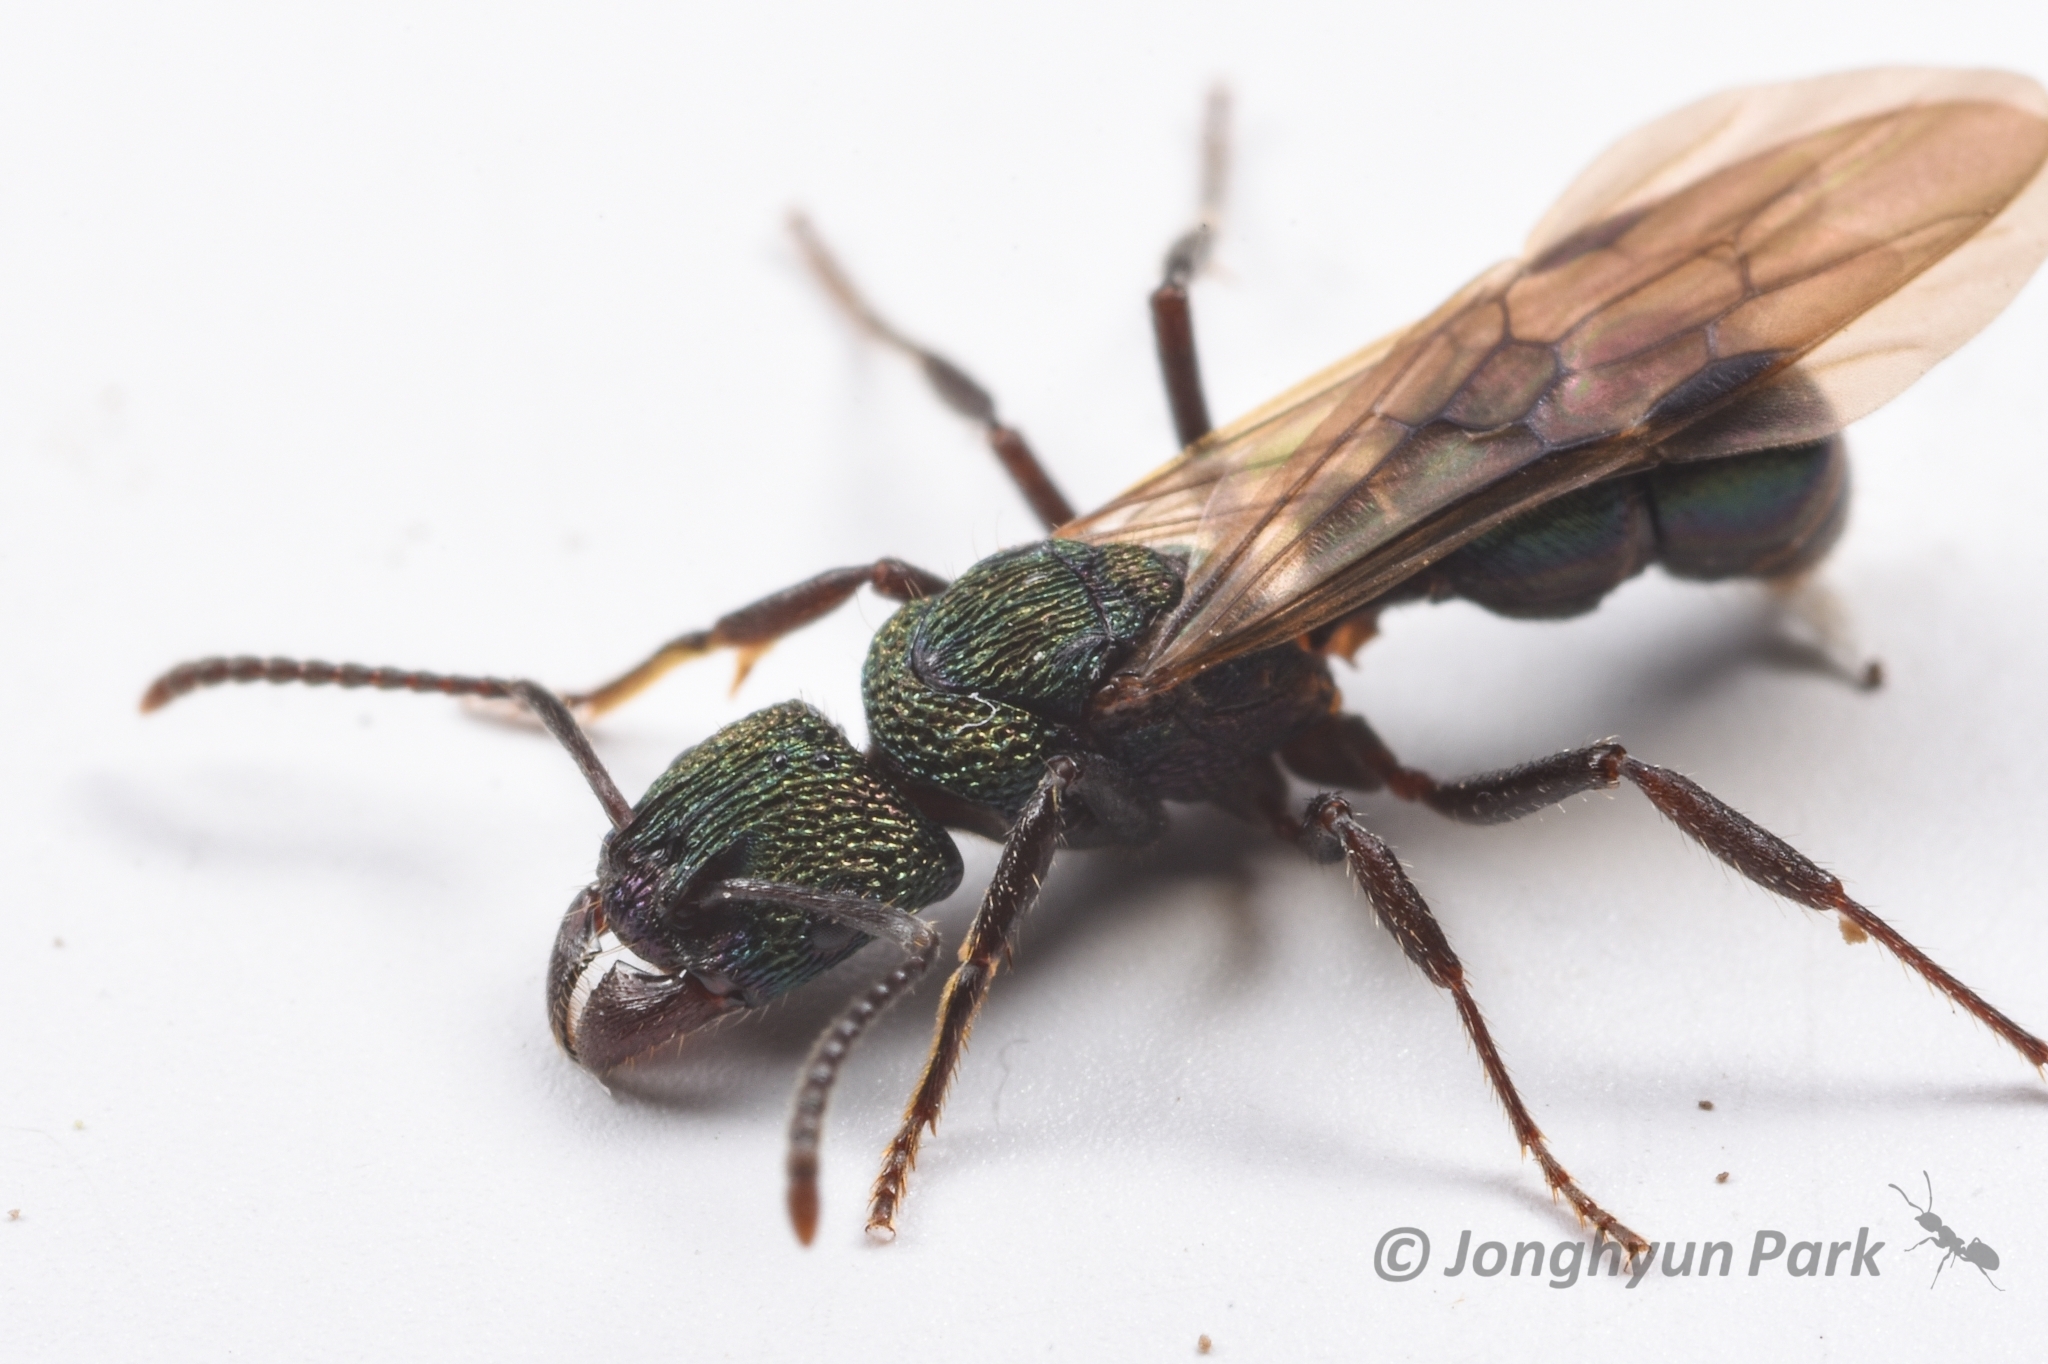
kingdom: Animalia
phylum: Arthropoda
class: Insecta
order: Hymenoptera
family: Formicidae
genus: Rhytidoponera
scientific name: Rhytidoponera metallica
